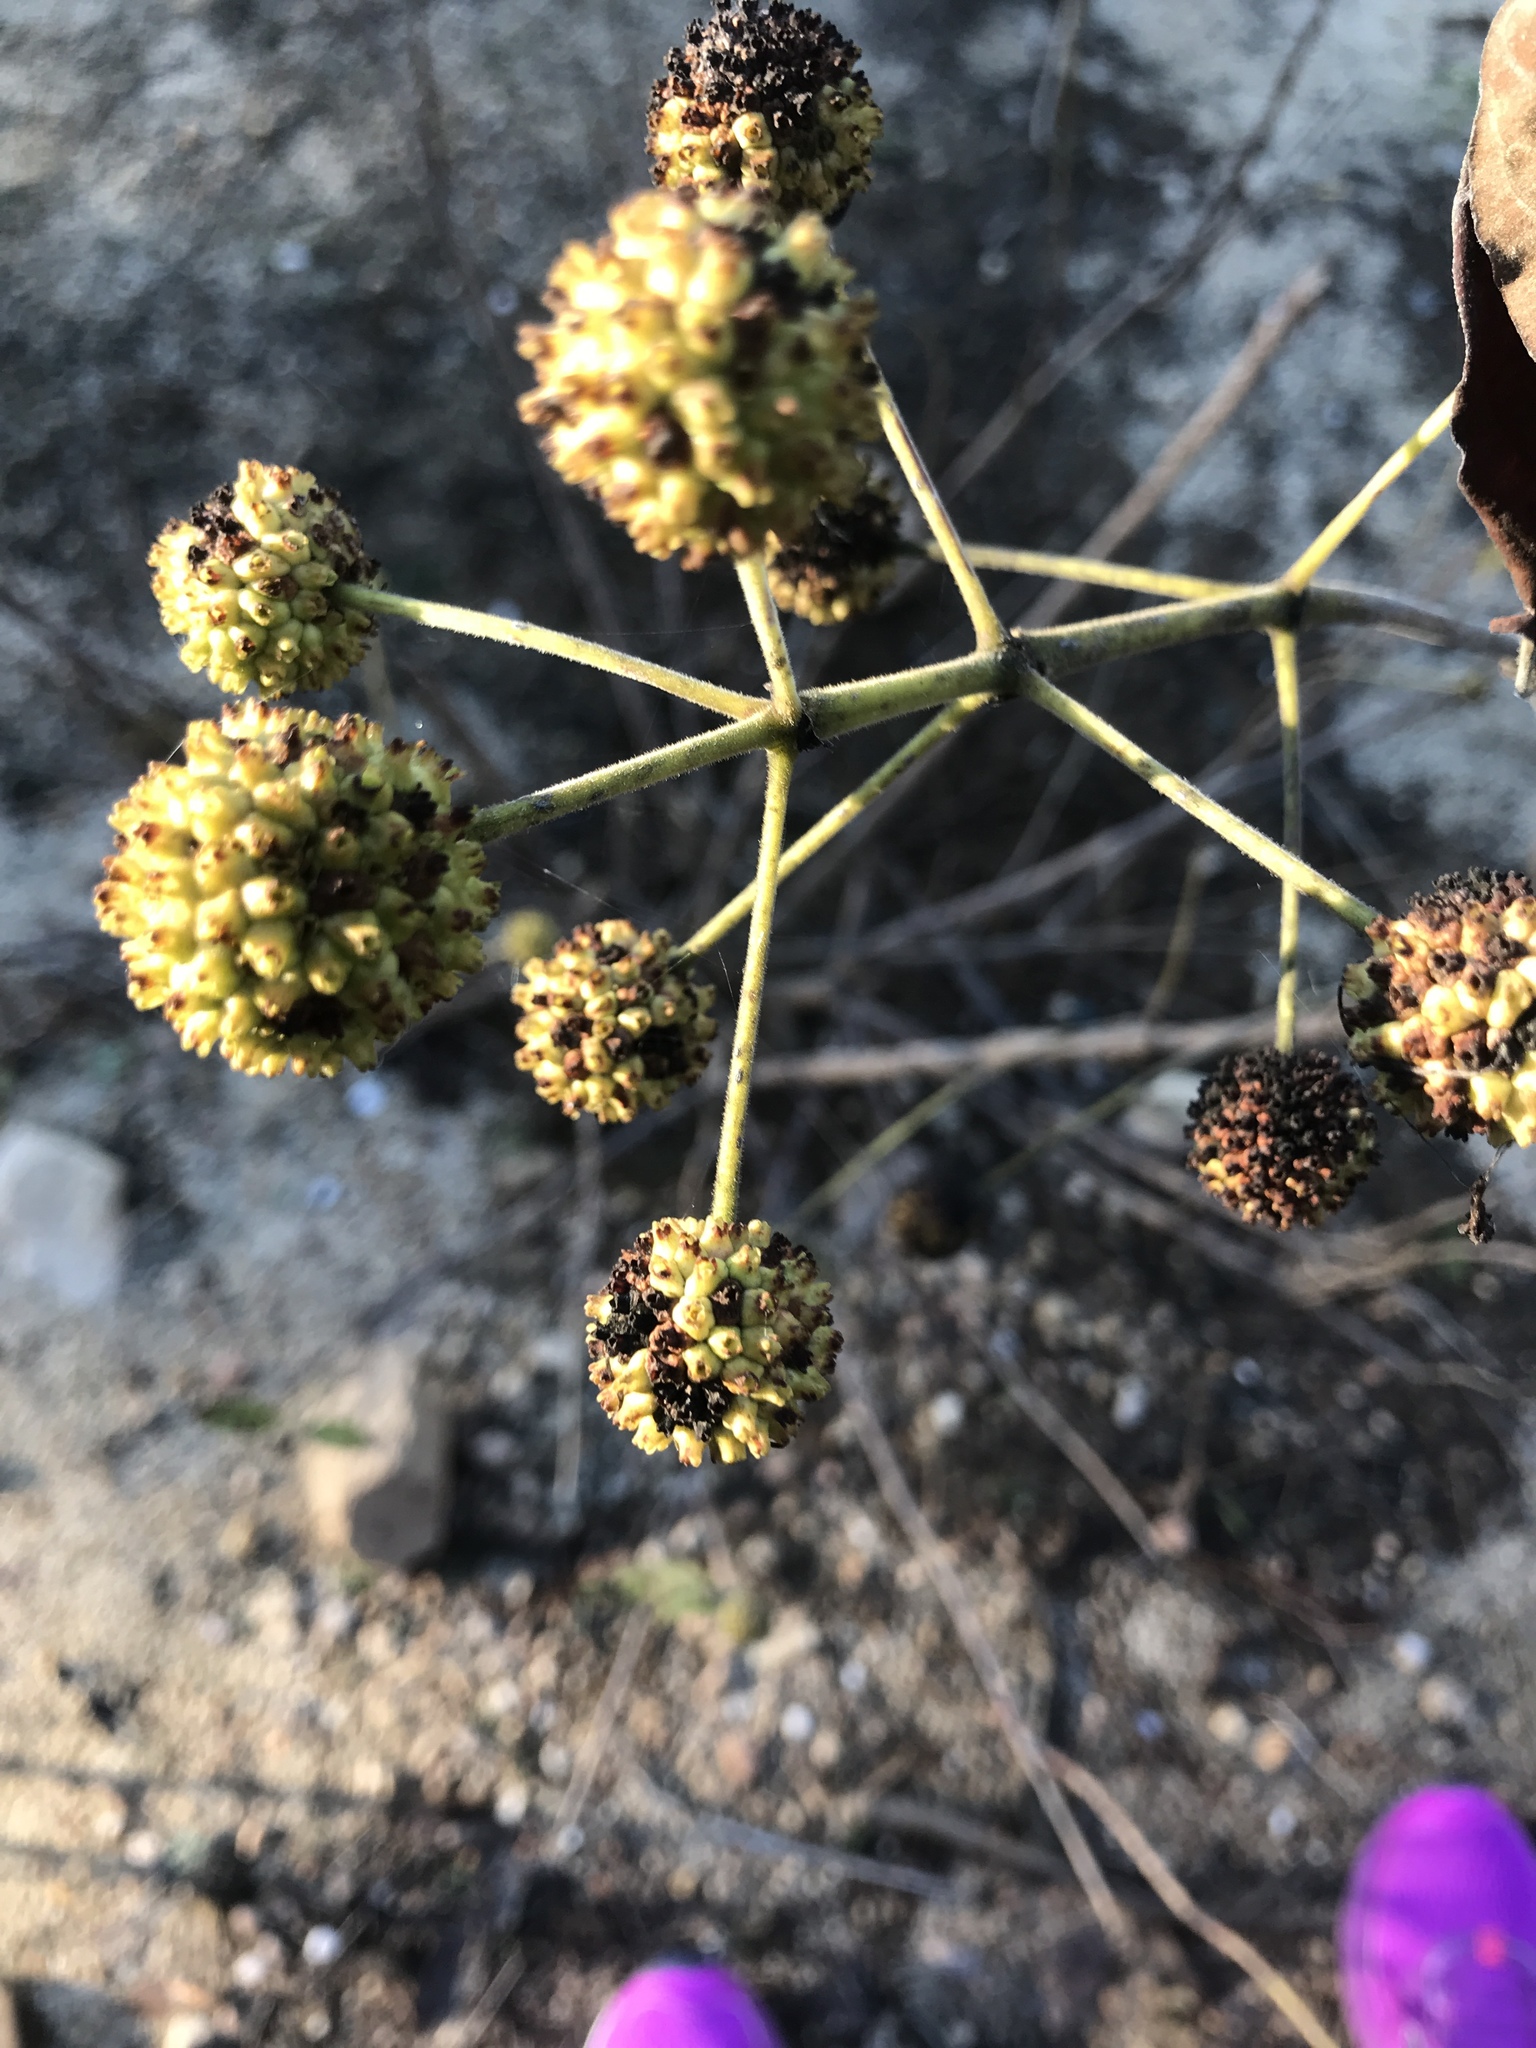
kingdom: Plantae
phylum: Tracheophyta
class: Magnoliopsida
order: Gentianales
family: Rubiaceae
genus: Cephalanthus
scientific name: Cephalanthus occidentalis
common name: Button-willow
